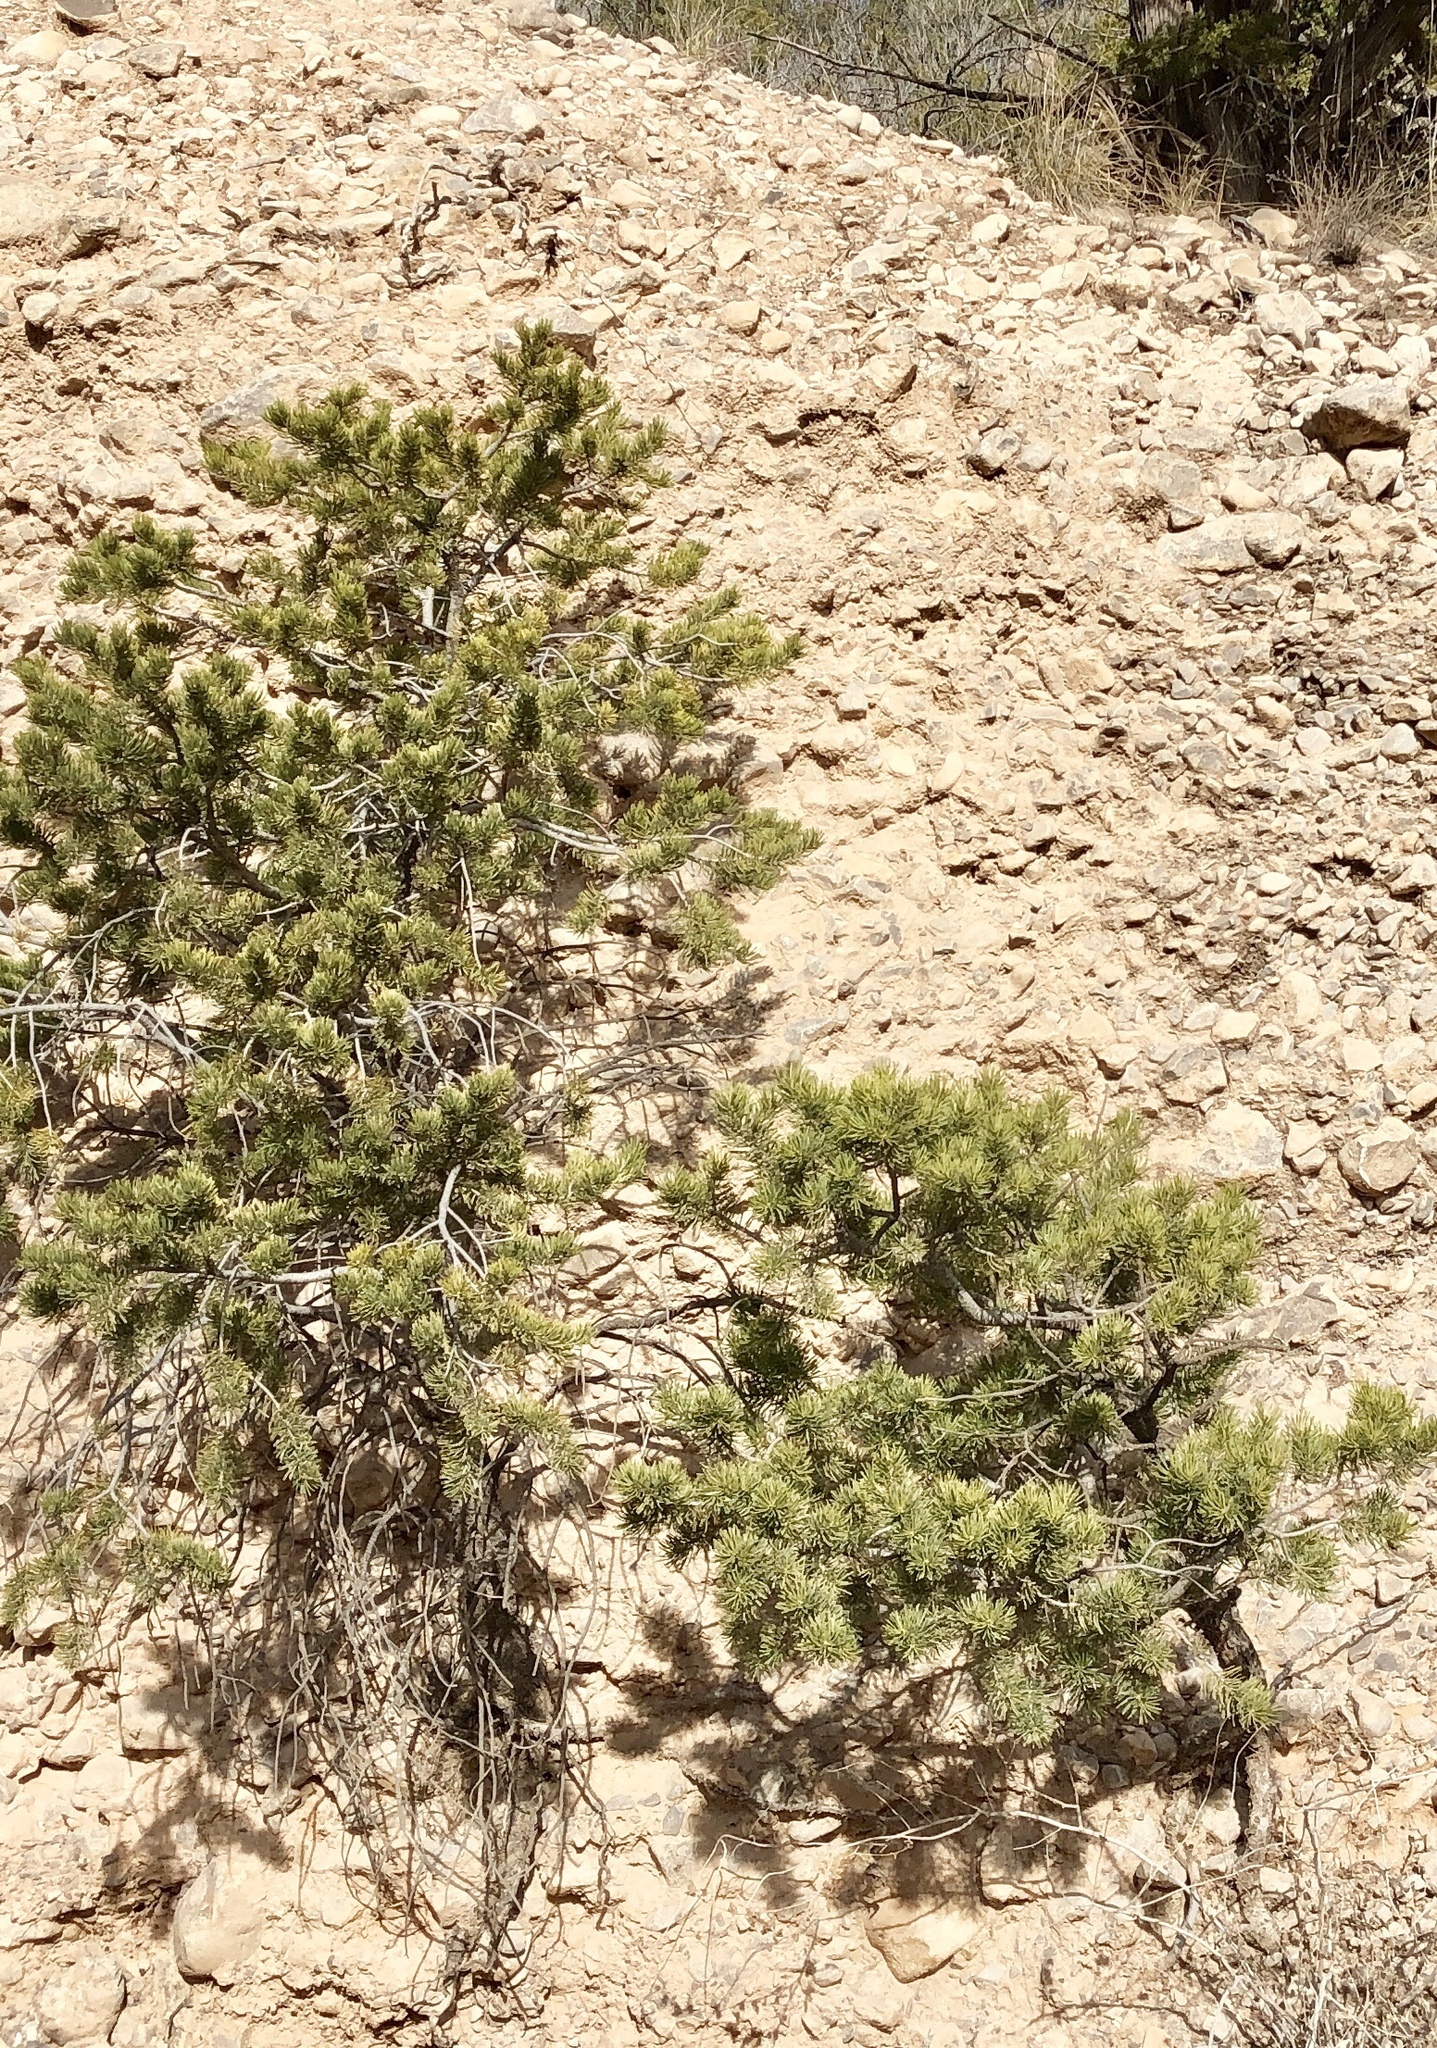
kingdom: Plantae
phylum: Tracheophyta
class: Pinopsida
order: Pinales
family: Pinaceae
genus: Pinus
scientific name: Pinus edulis
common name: Colorado pinyon
